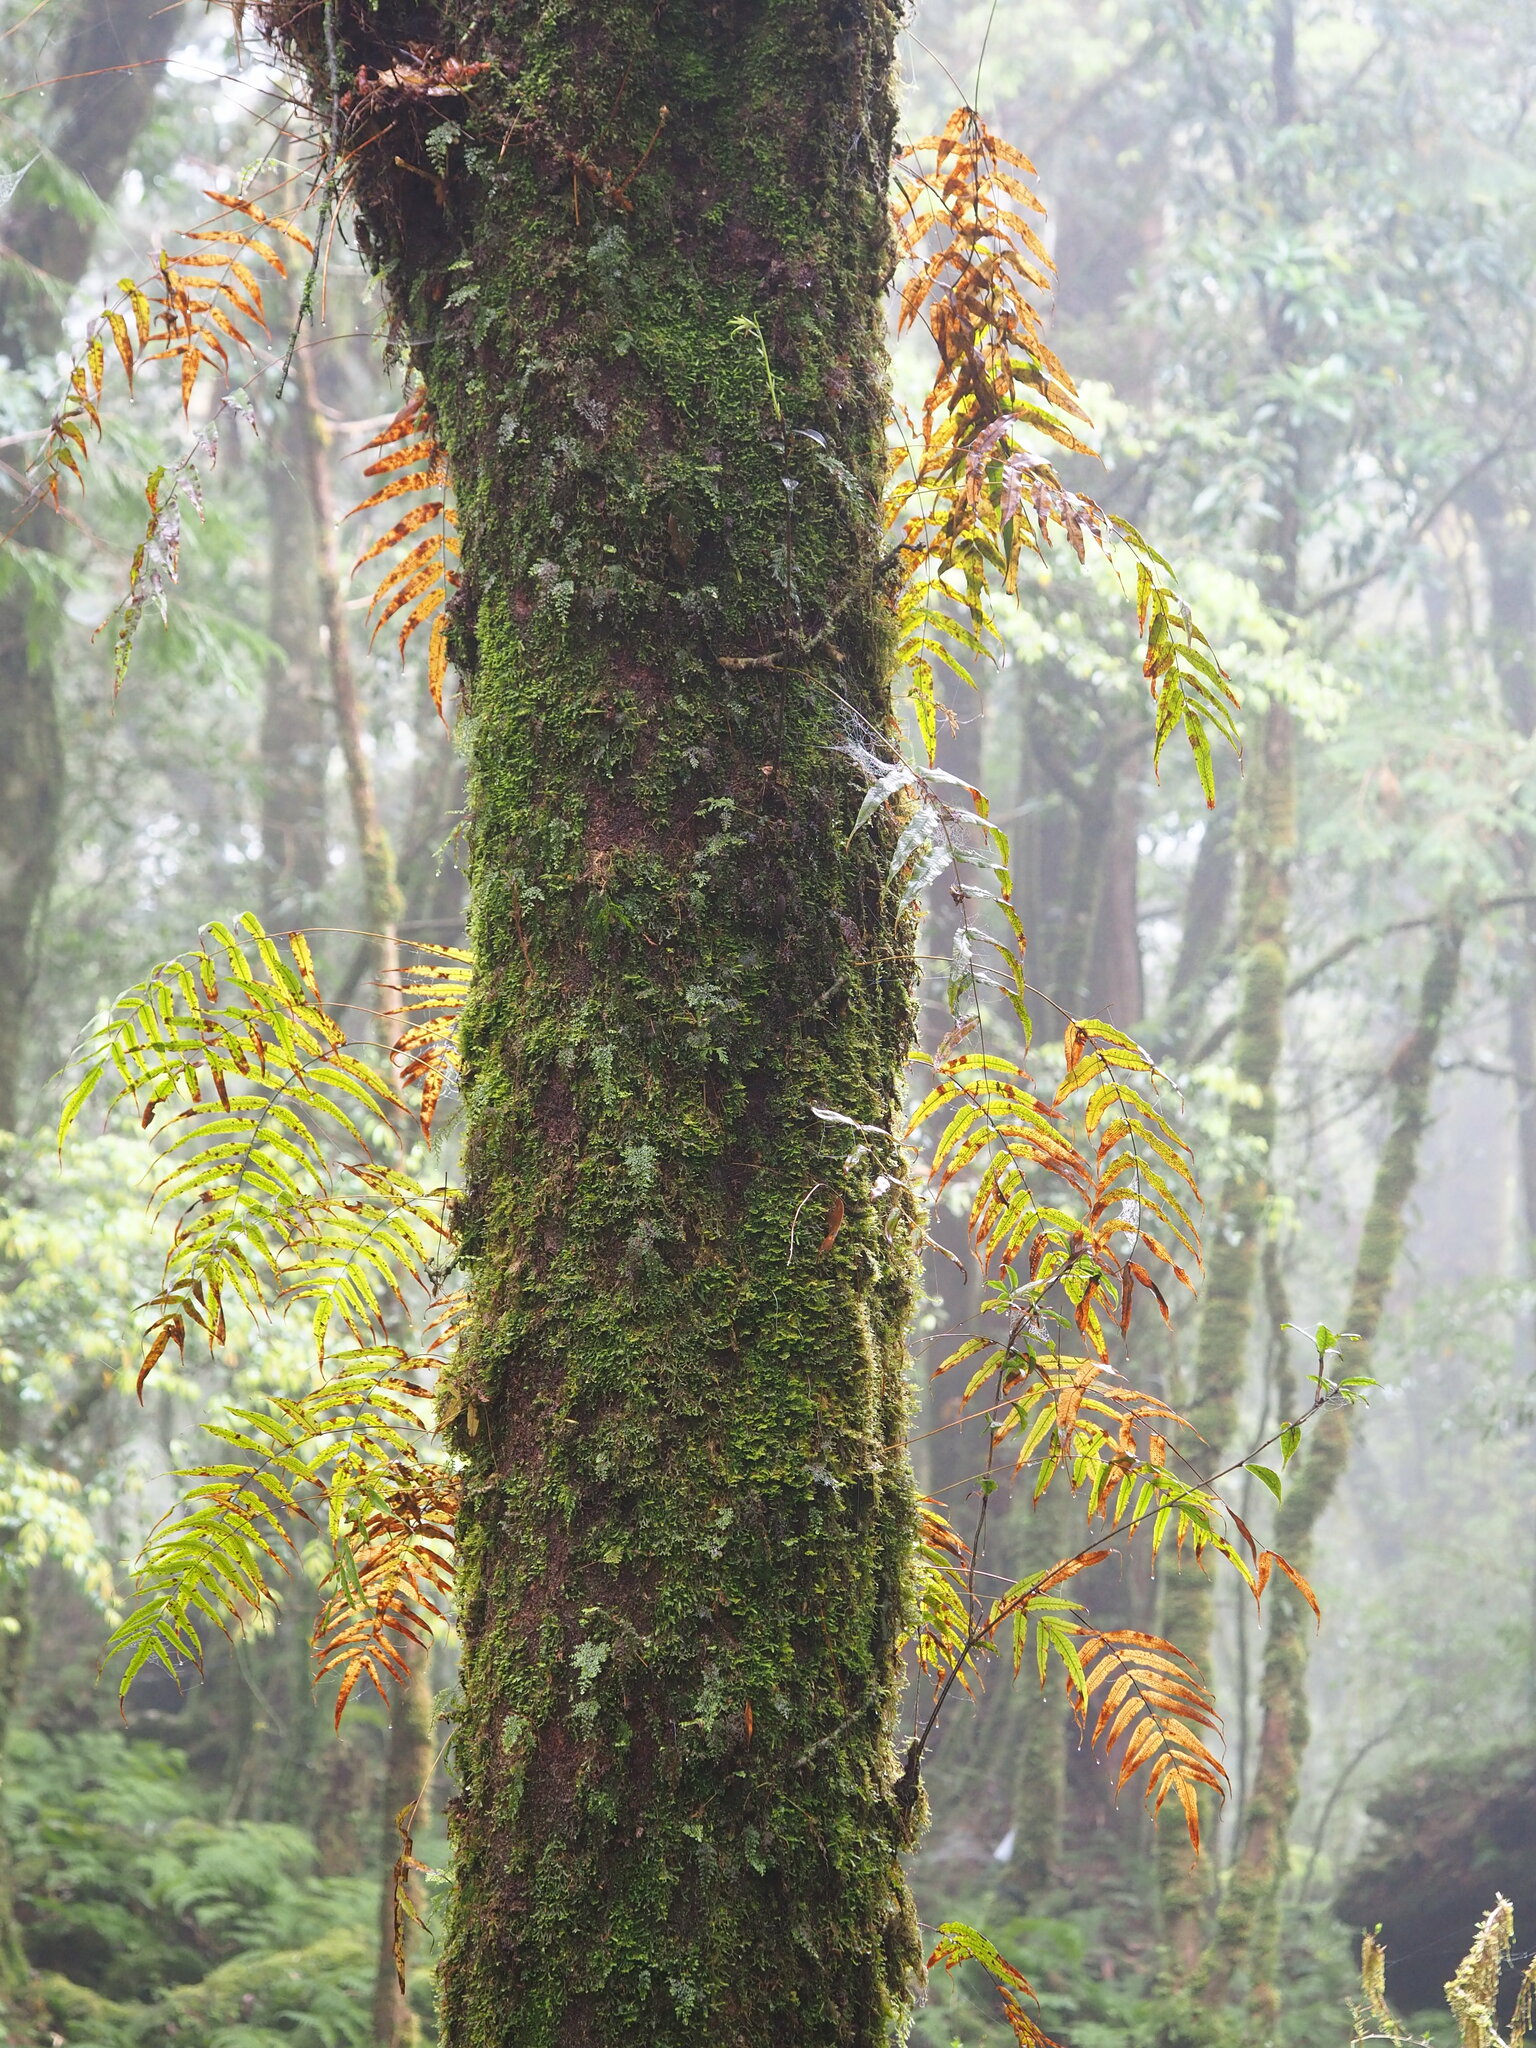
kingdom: Plantae
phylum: Tracheophyta
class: Polypodiopsida
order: Polypodiales
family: Polypodiaceae
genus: Selliguea
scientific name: Selliguea lehmannii
